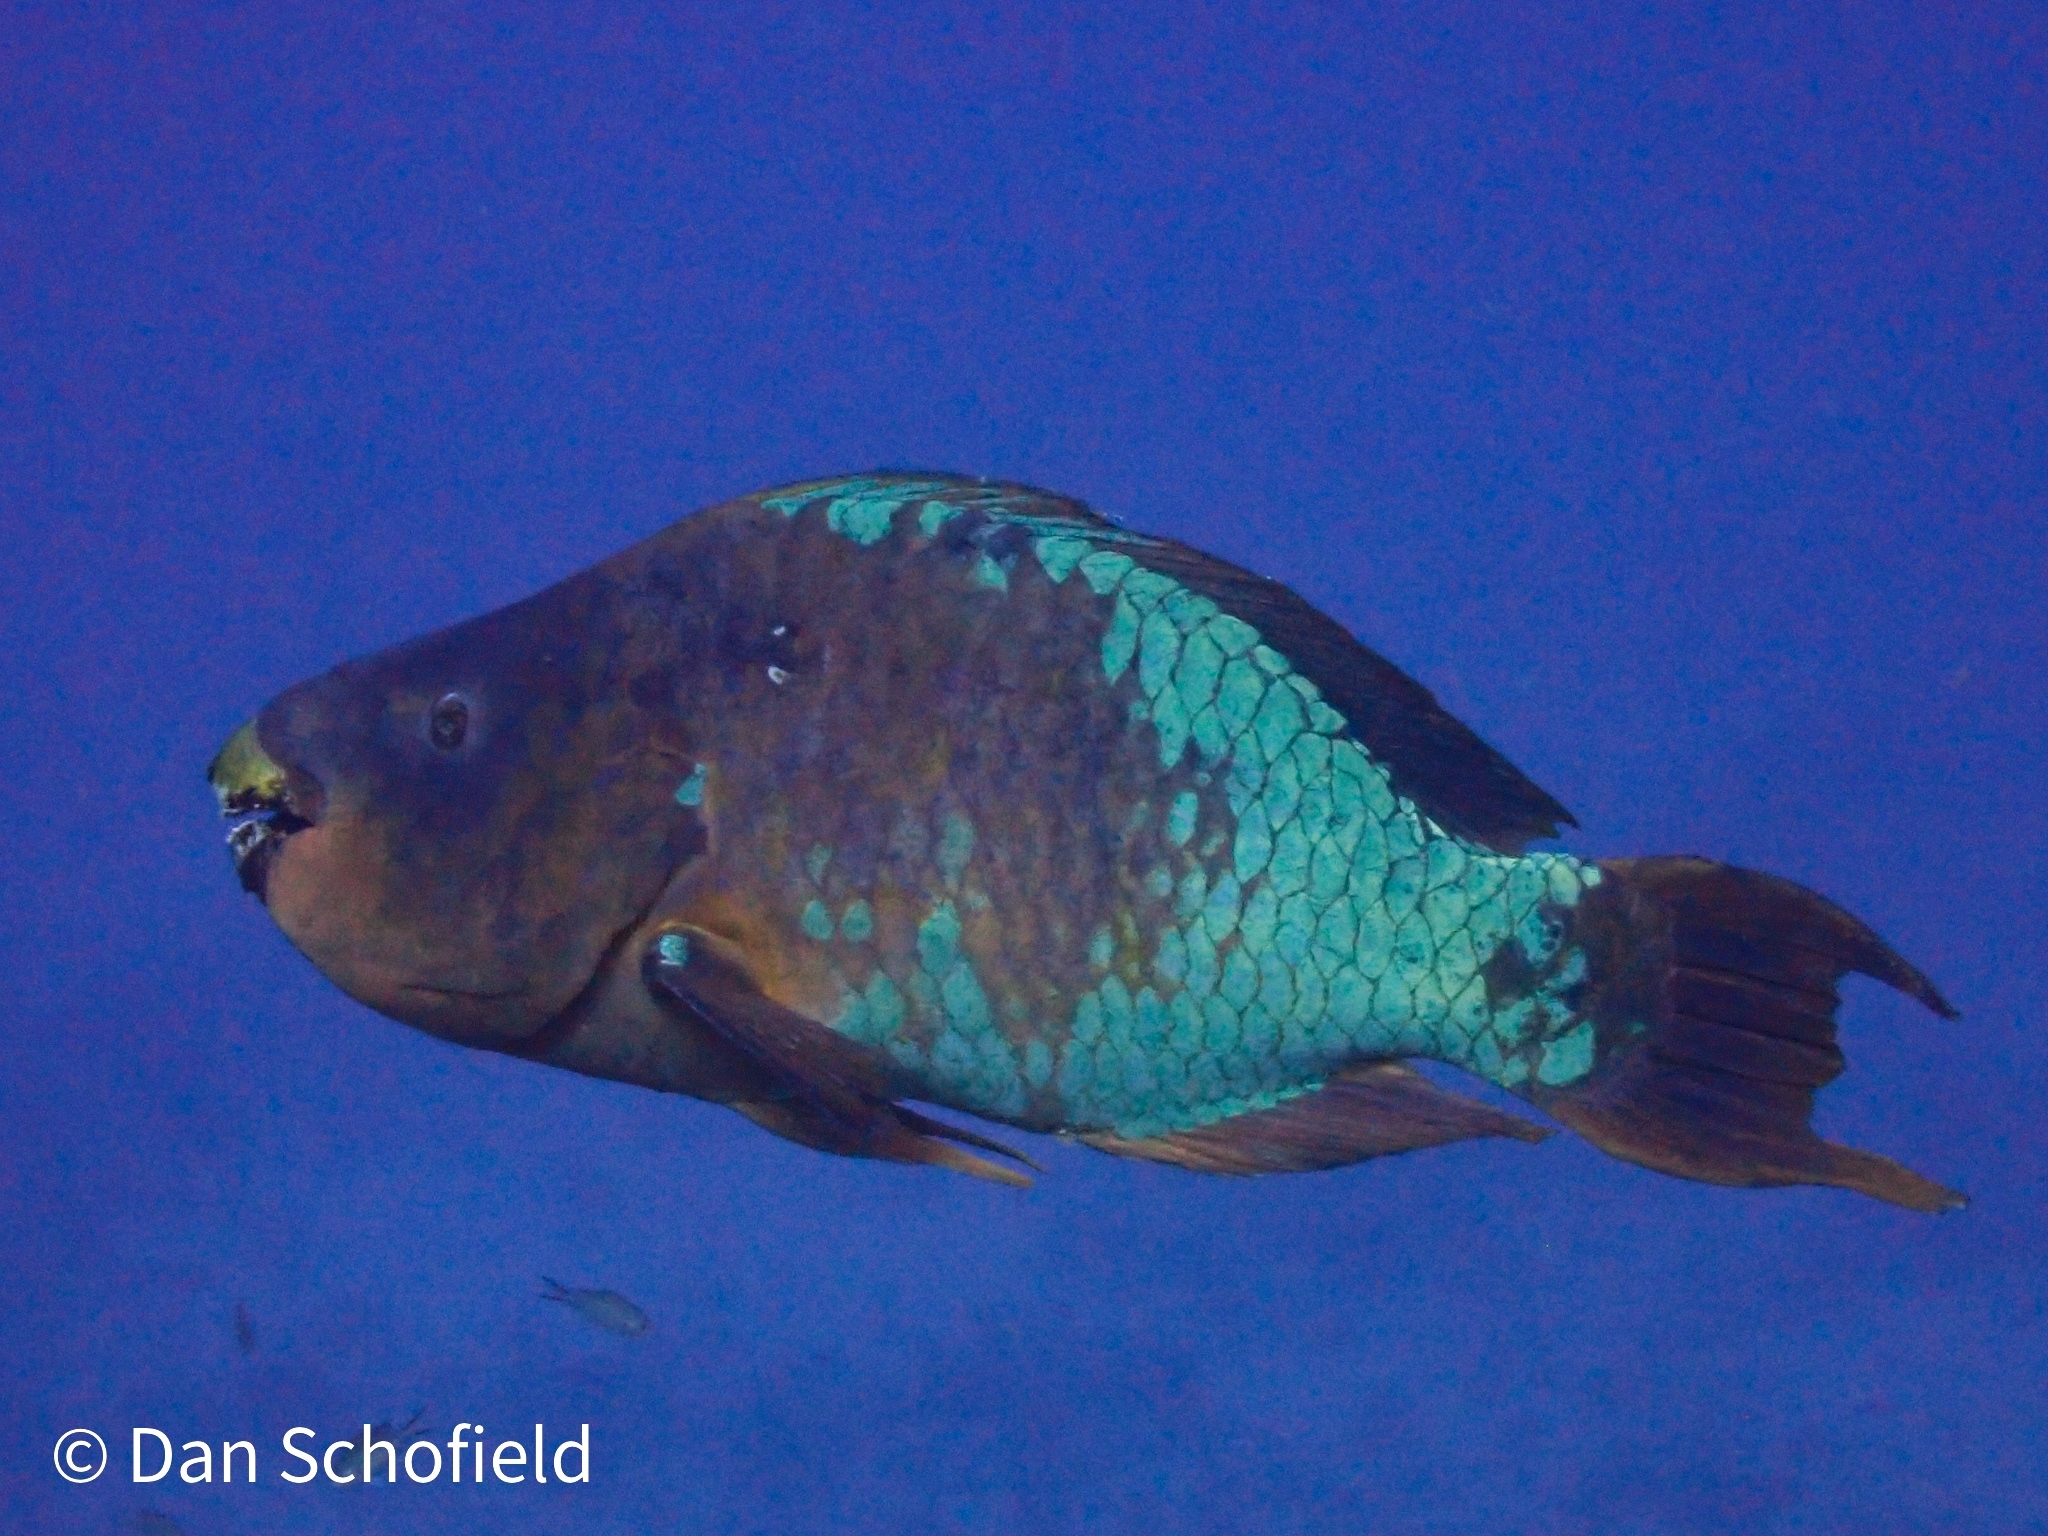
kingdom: Animalia
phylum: Chordata
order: Perciformes
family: Scaridae
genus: Scarus
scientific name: Scarus guacamaia
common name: Rainbow parrotfish
